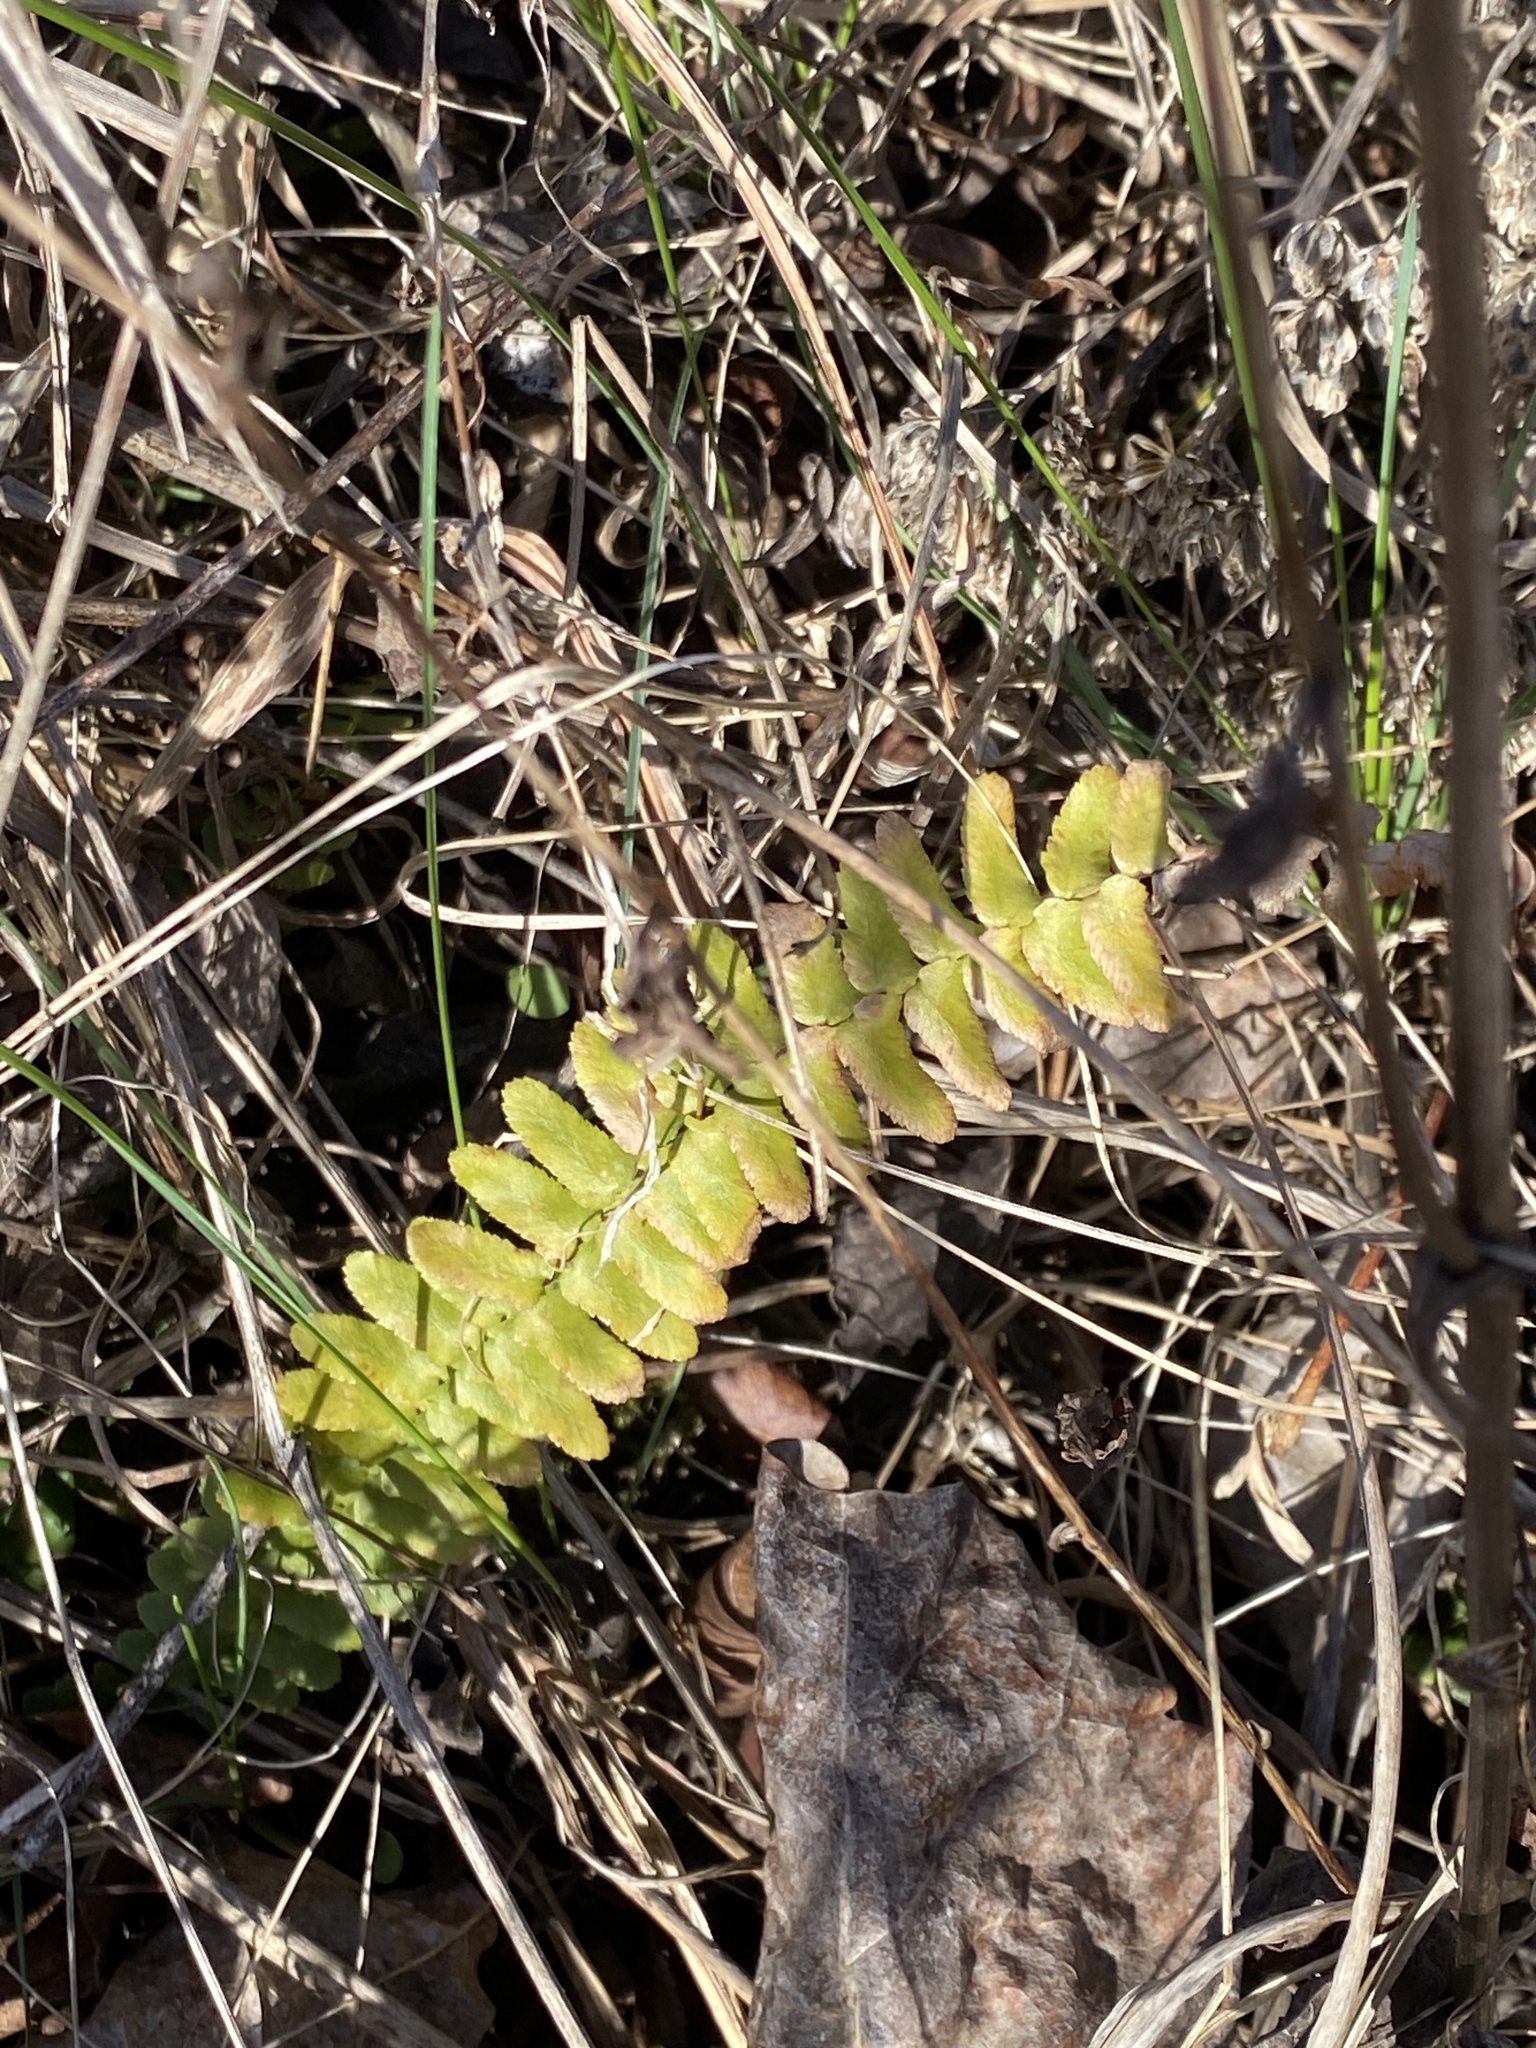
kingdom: Plantae
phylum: Tracheophyta
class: Polypodiopsida
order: Polypodiales
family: Aspleniaceae
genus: Asplenium
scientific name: Asplenium platyneuron
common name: Ebony spleenwort
